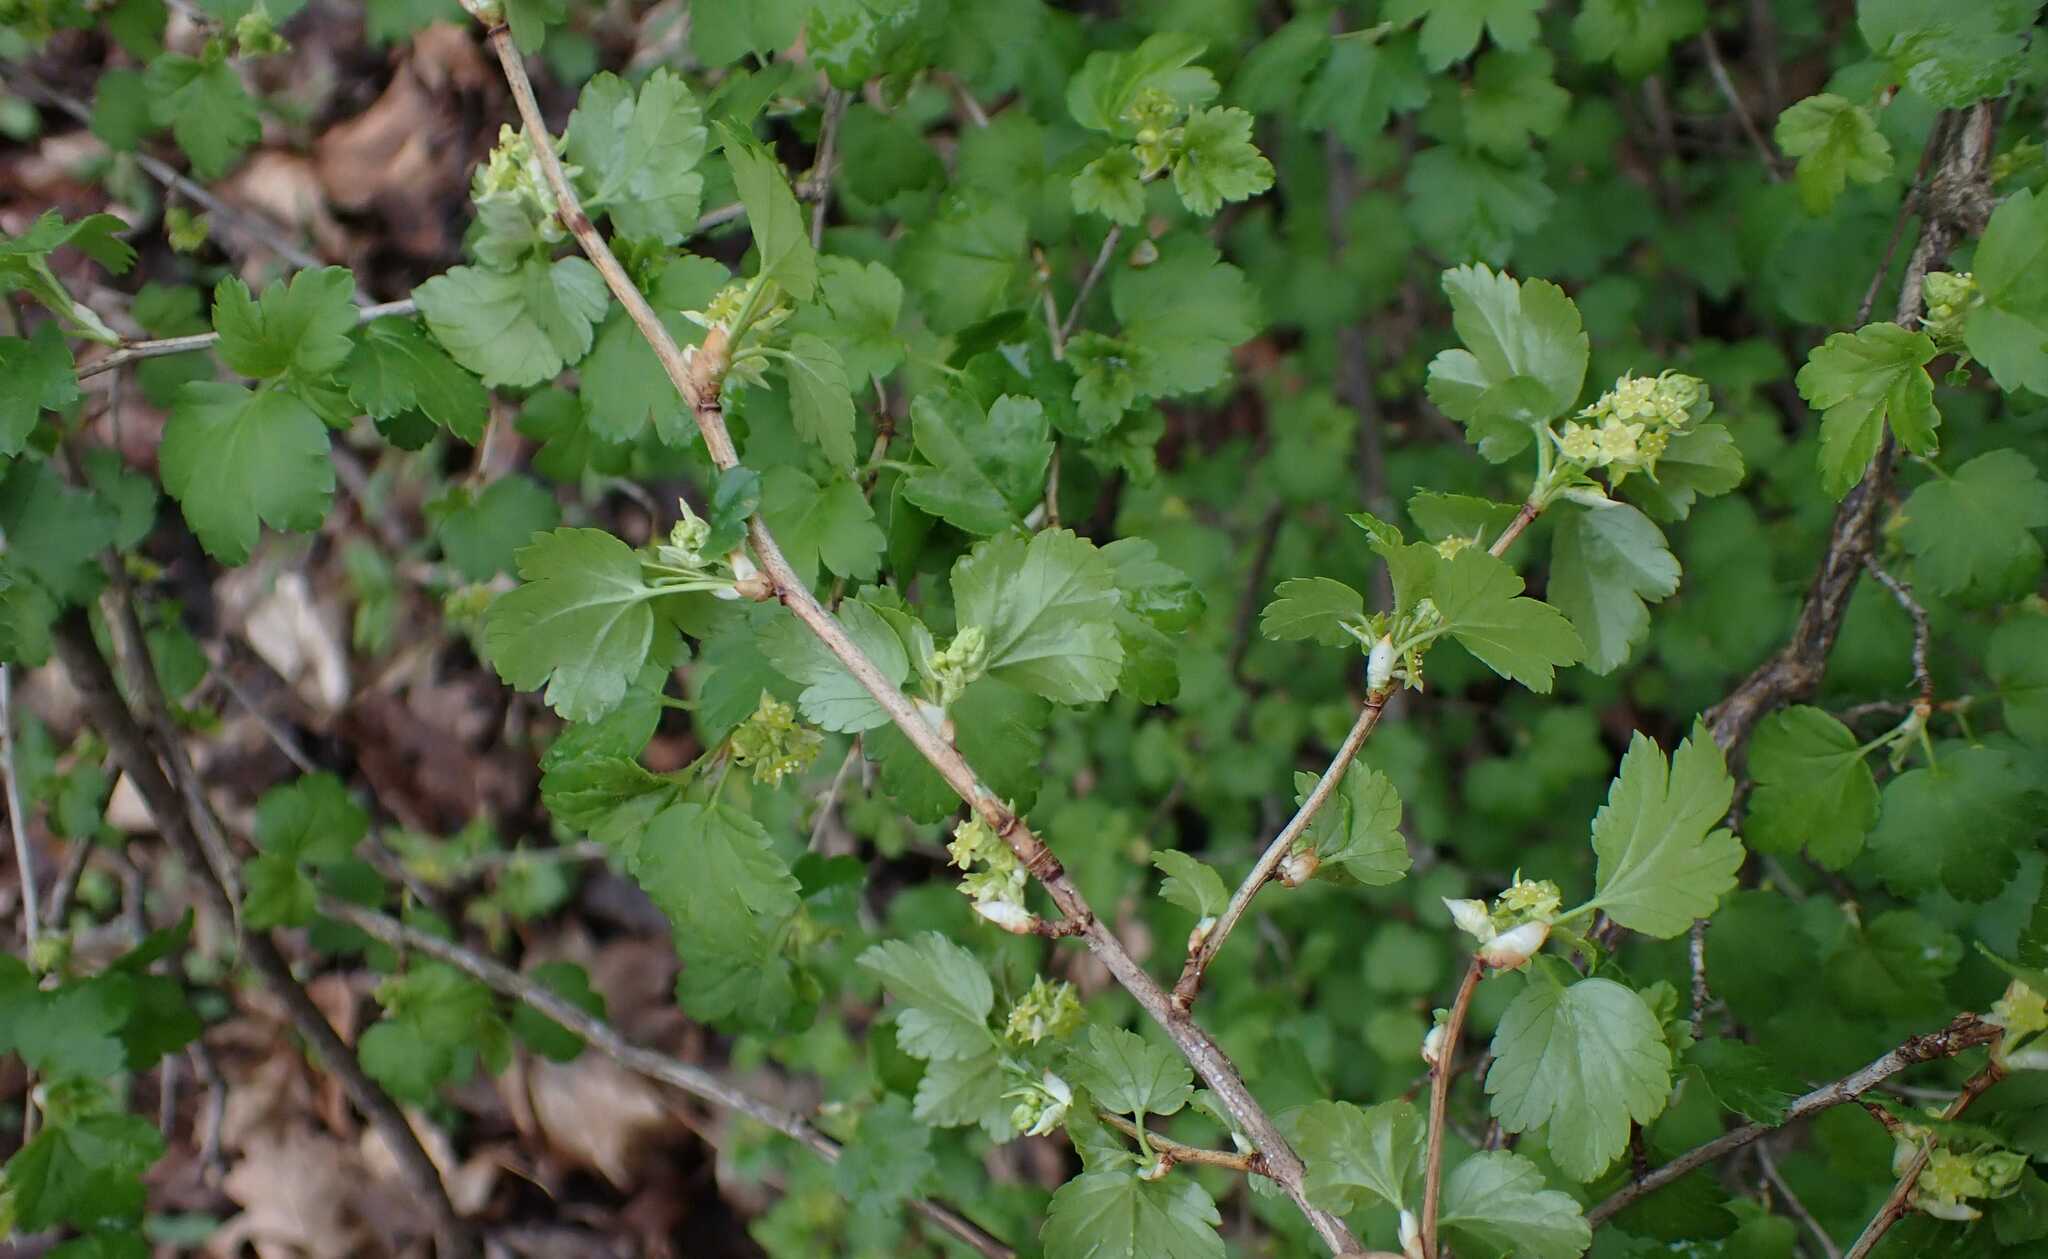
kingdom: Plantae
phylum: Tracheophyta
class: Magnoliopsida
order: Saxifragales
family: Grossulariaceae
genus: Ribes
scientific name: Ribes alpinum
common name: Alpine currant
